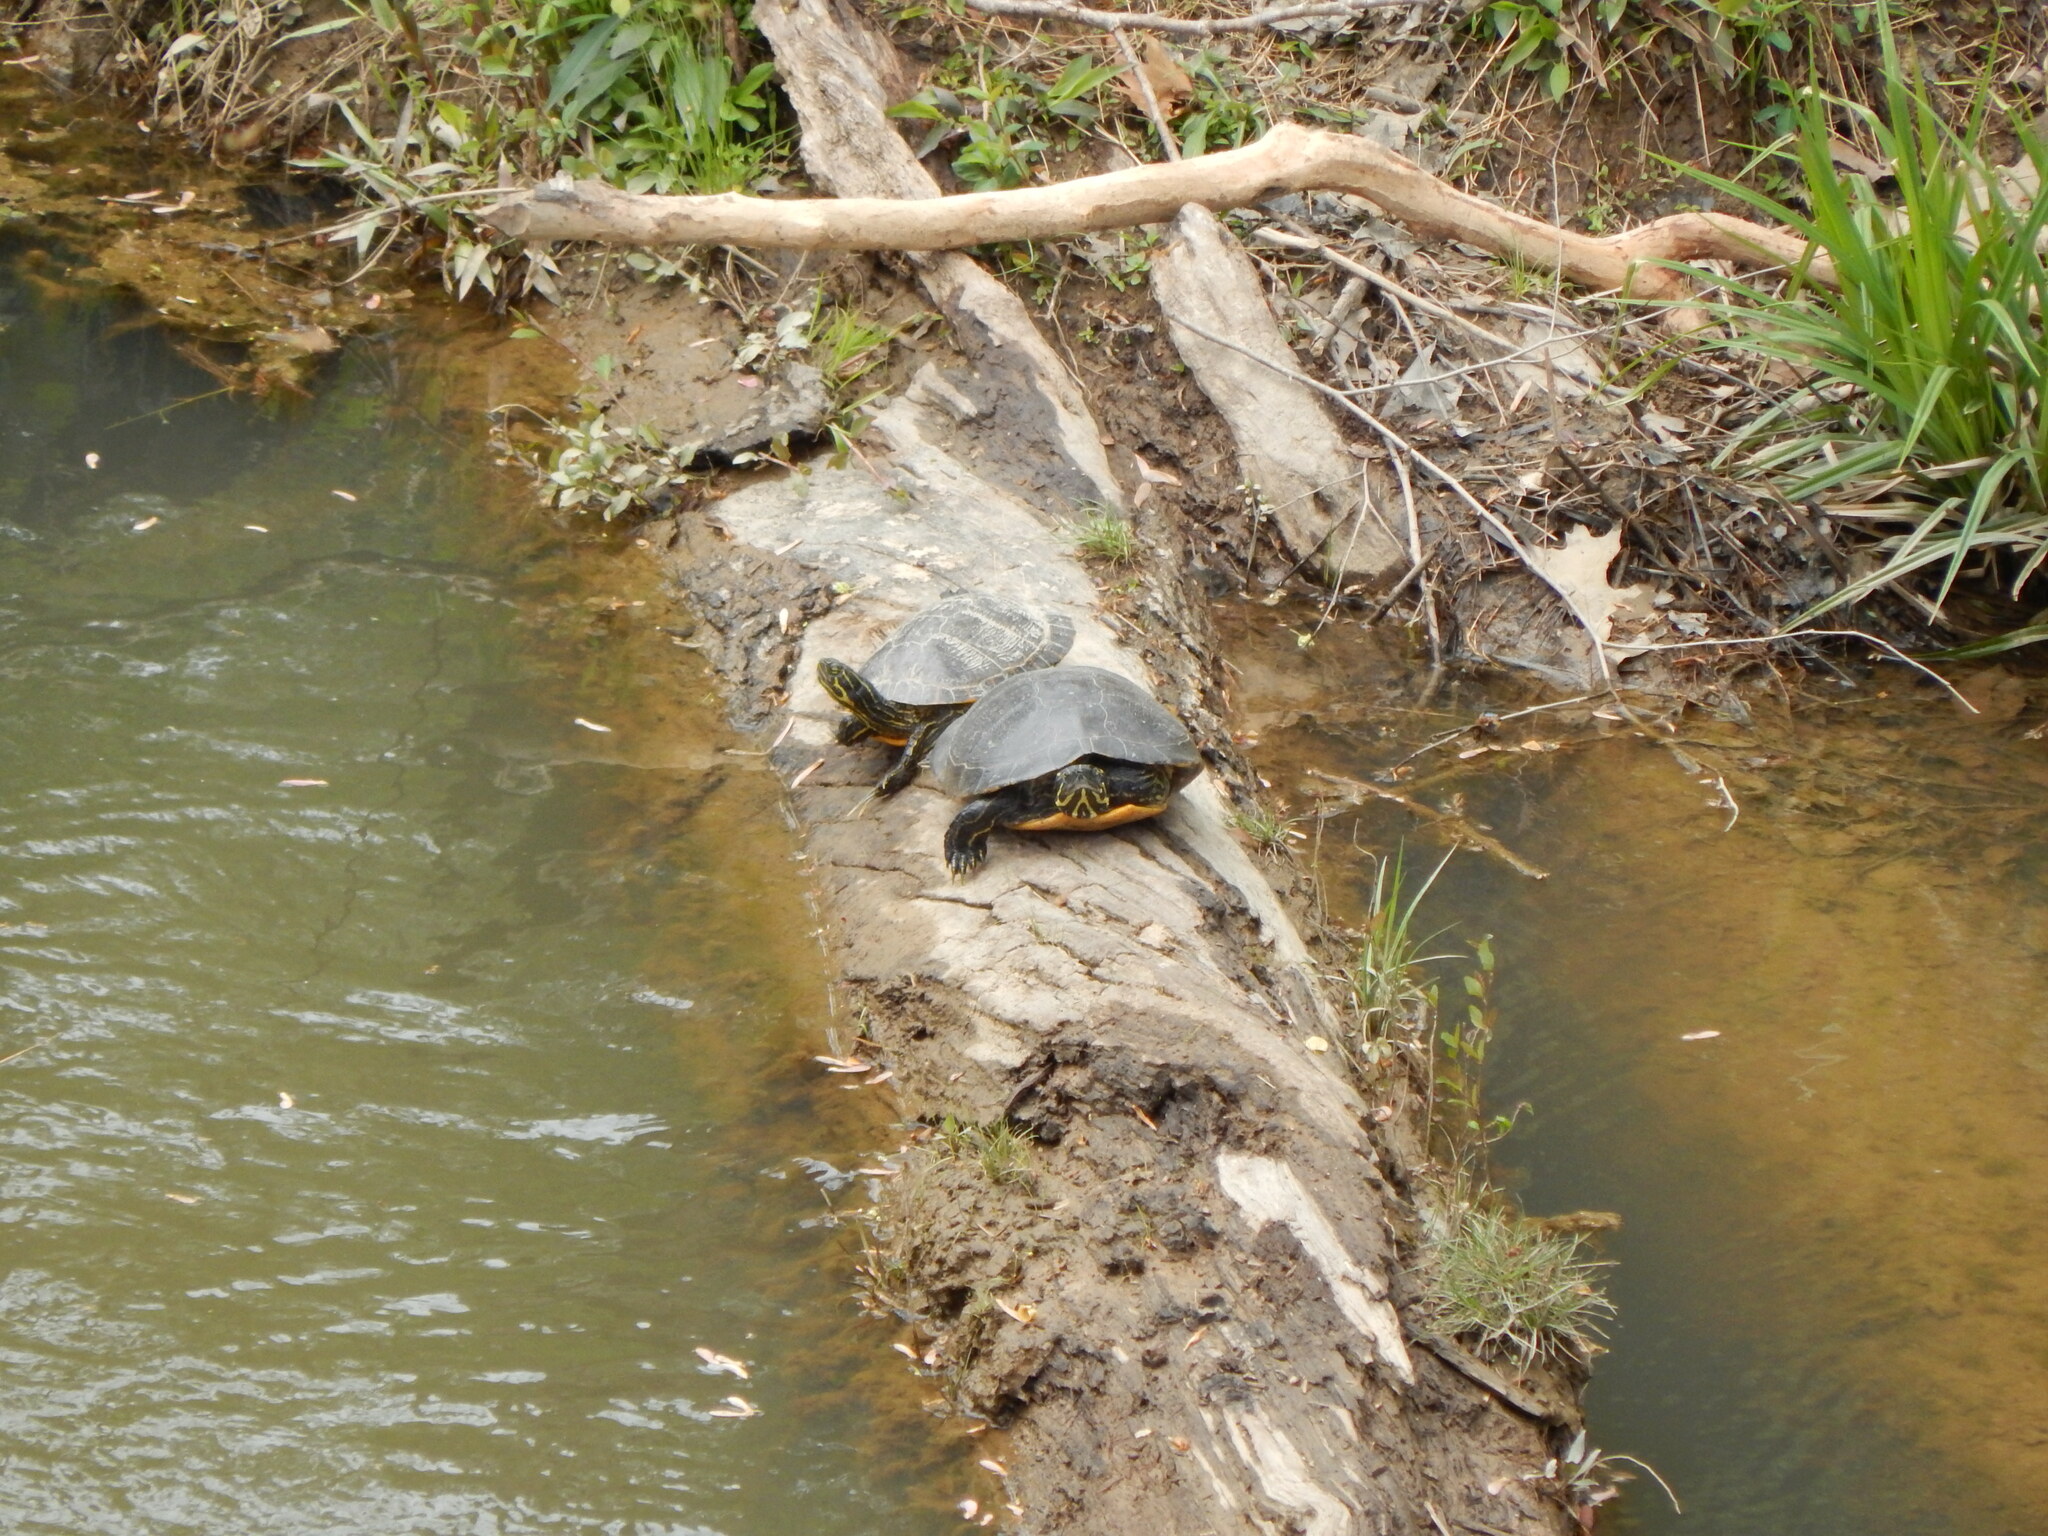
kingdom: Animalia
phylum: Chordata
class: Testudines
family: Emydidae
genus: Pseudemys
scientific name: Pseudemys concinna
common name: Eastern river cooter
